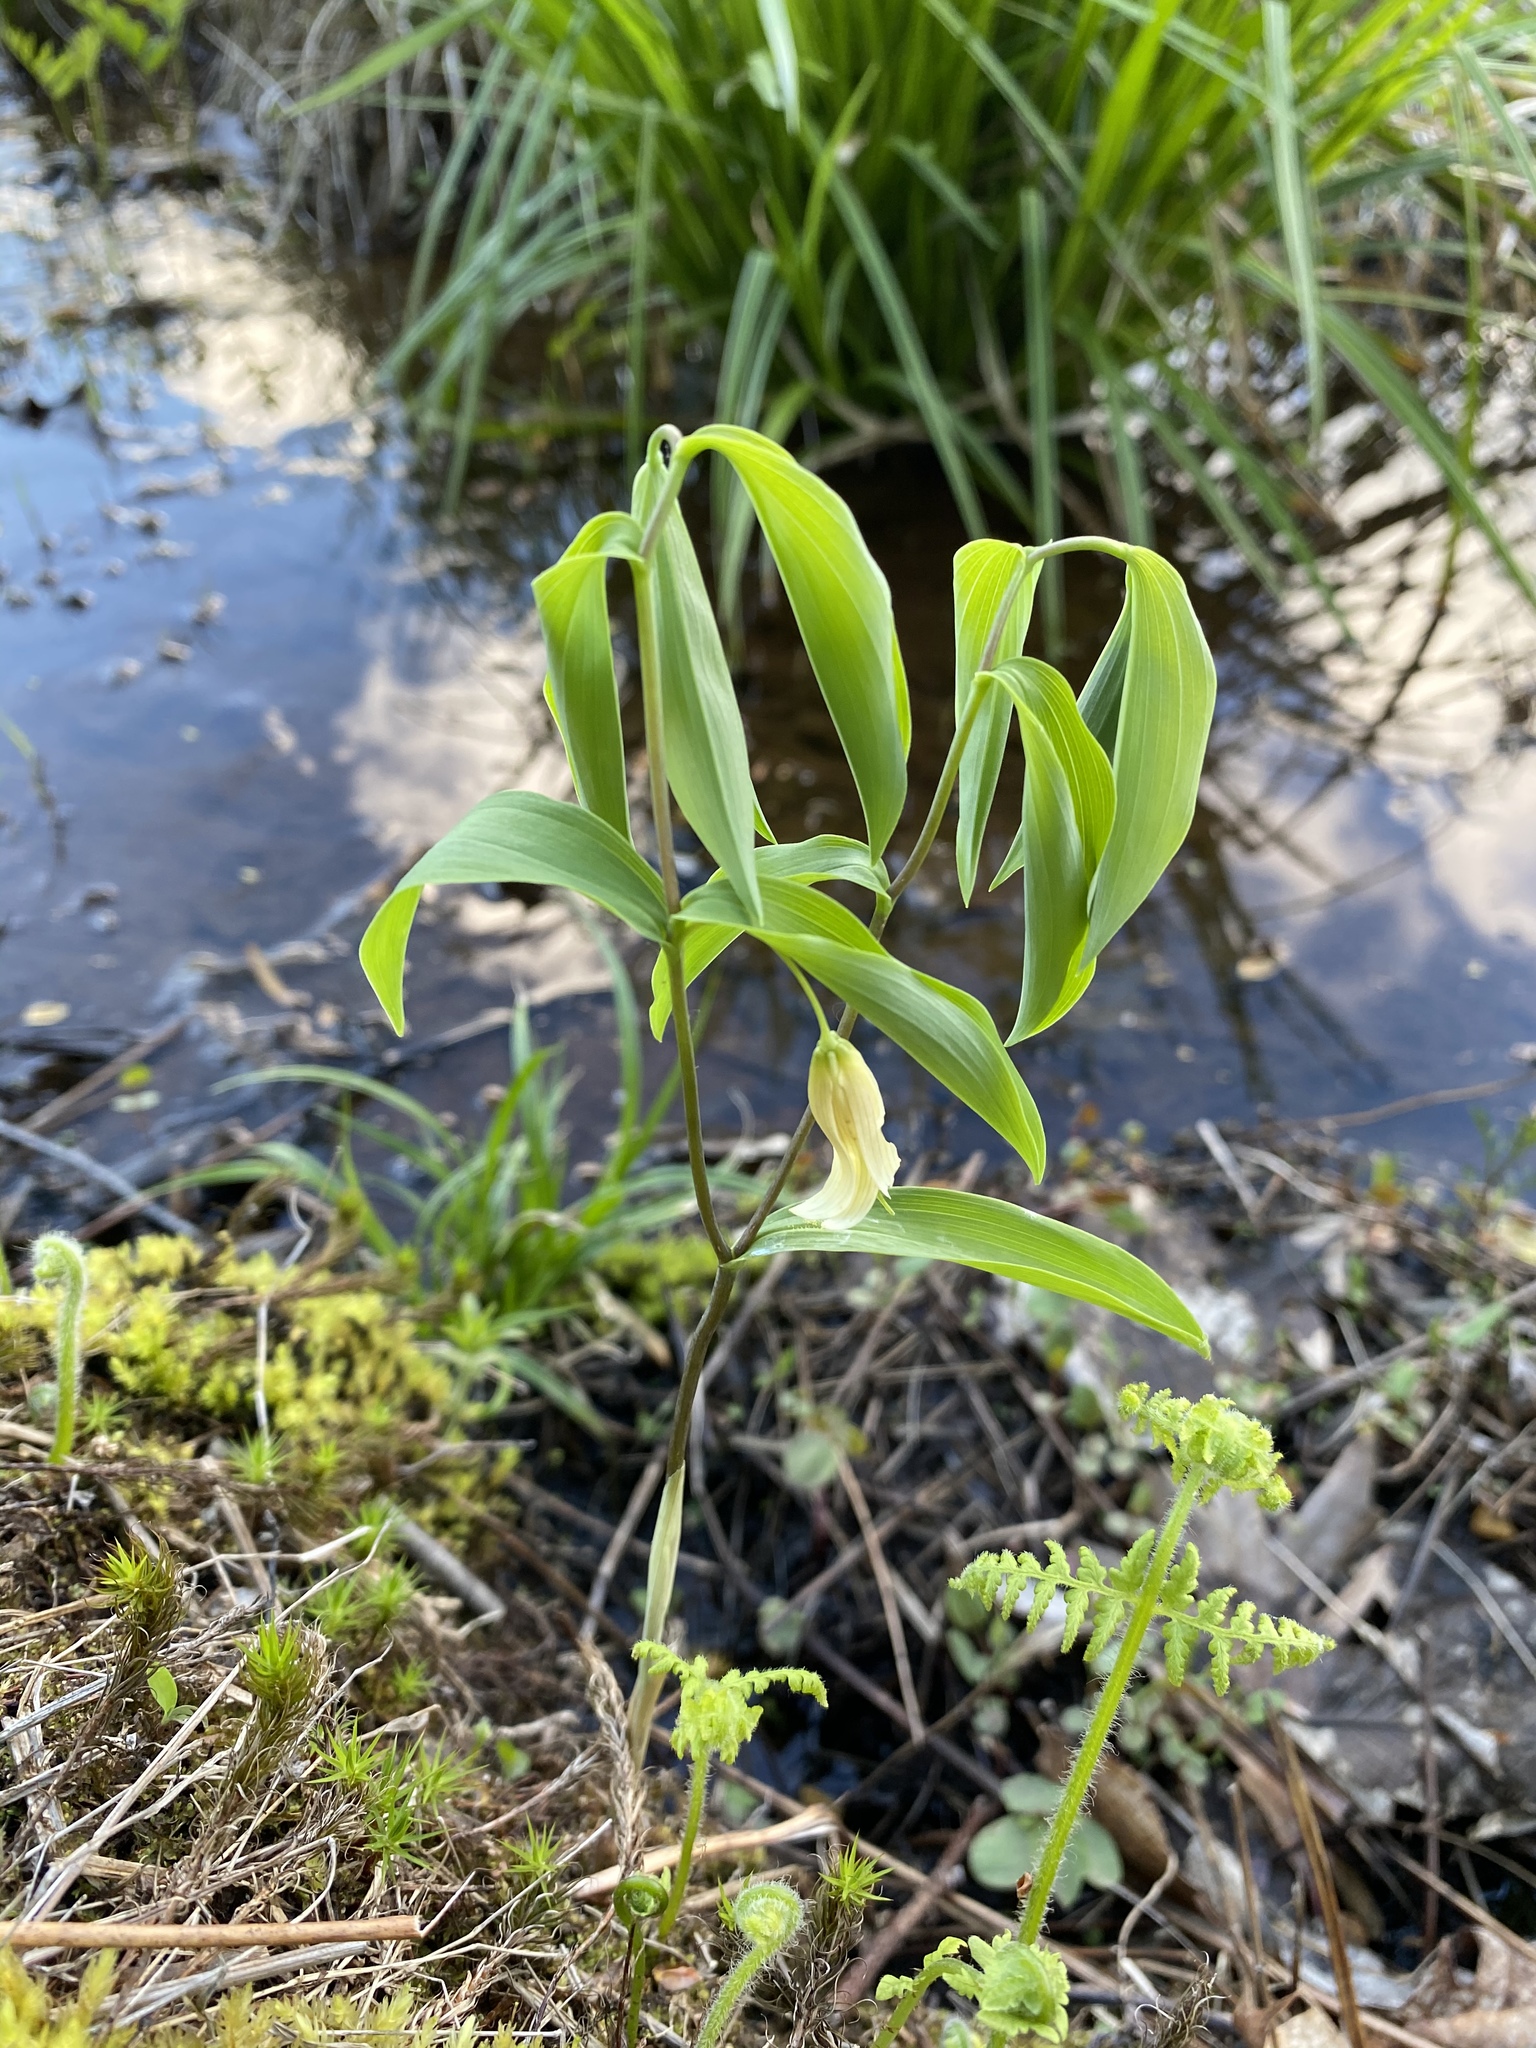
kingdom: Plantae
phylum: Tracheophyta
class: Liliopsida
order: Liliales
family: Colchicaceae
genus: Uvularia
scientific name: Uvularia sessilifolia
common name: Straw-lily
